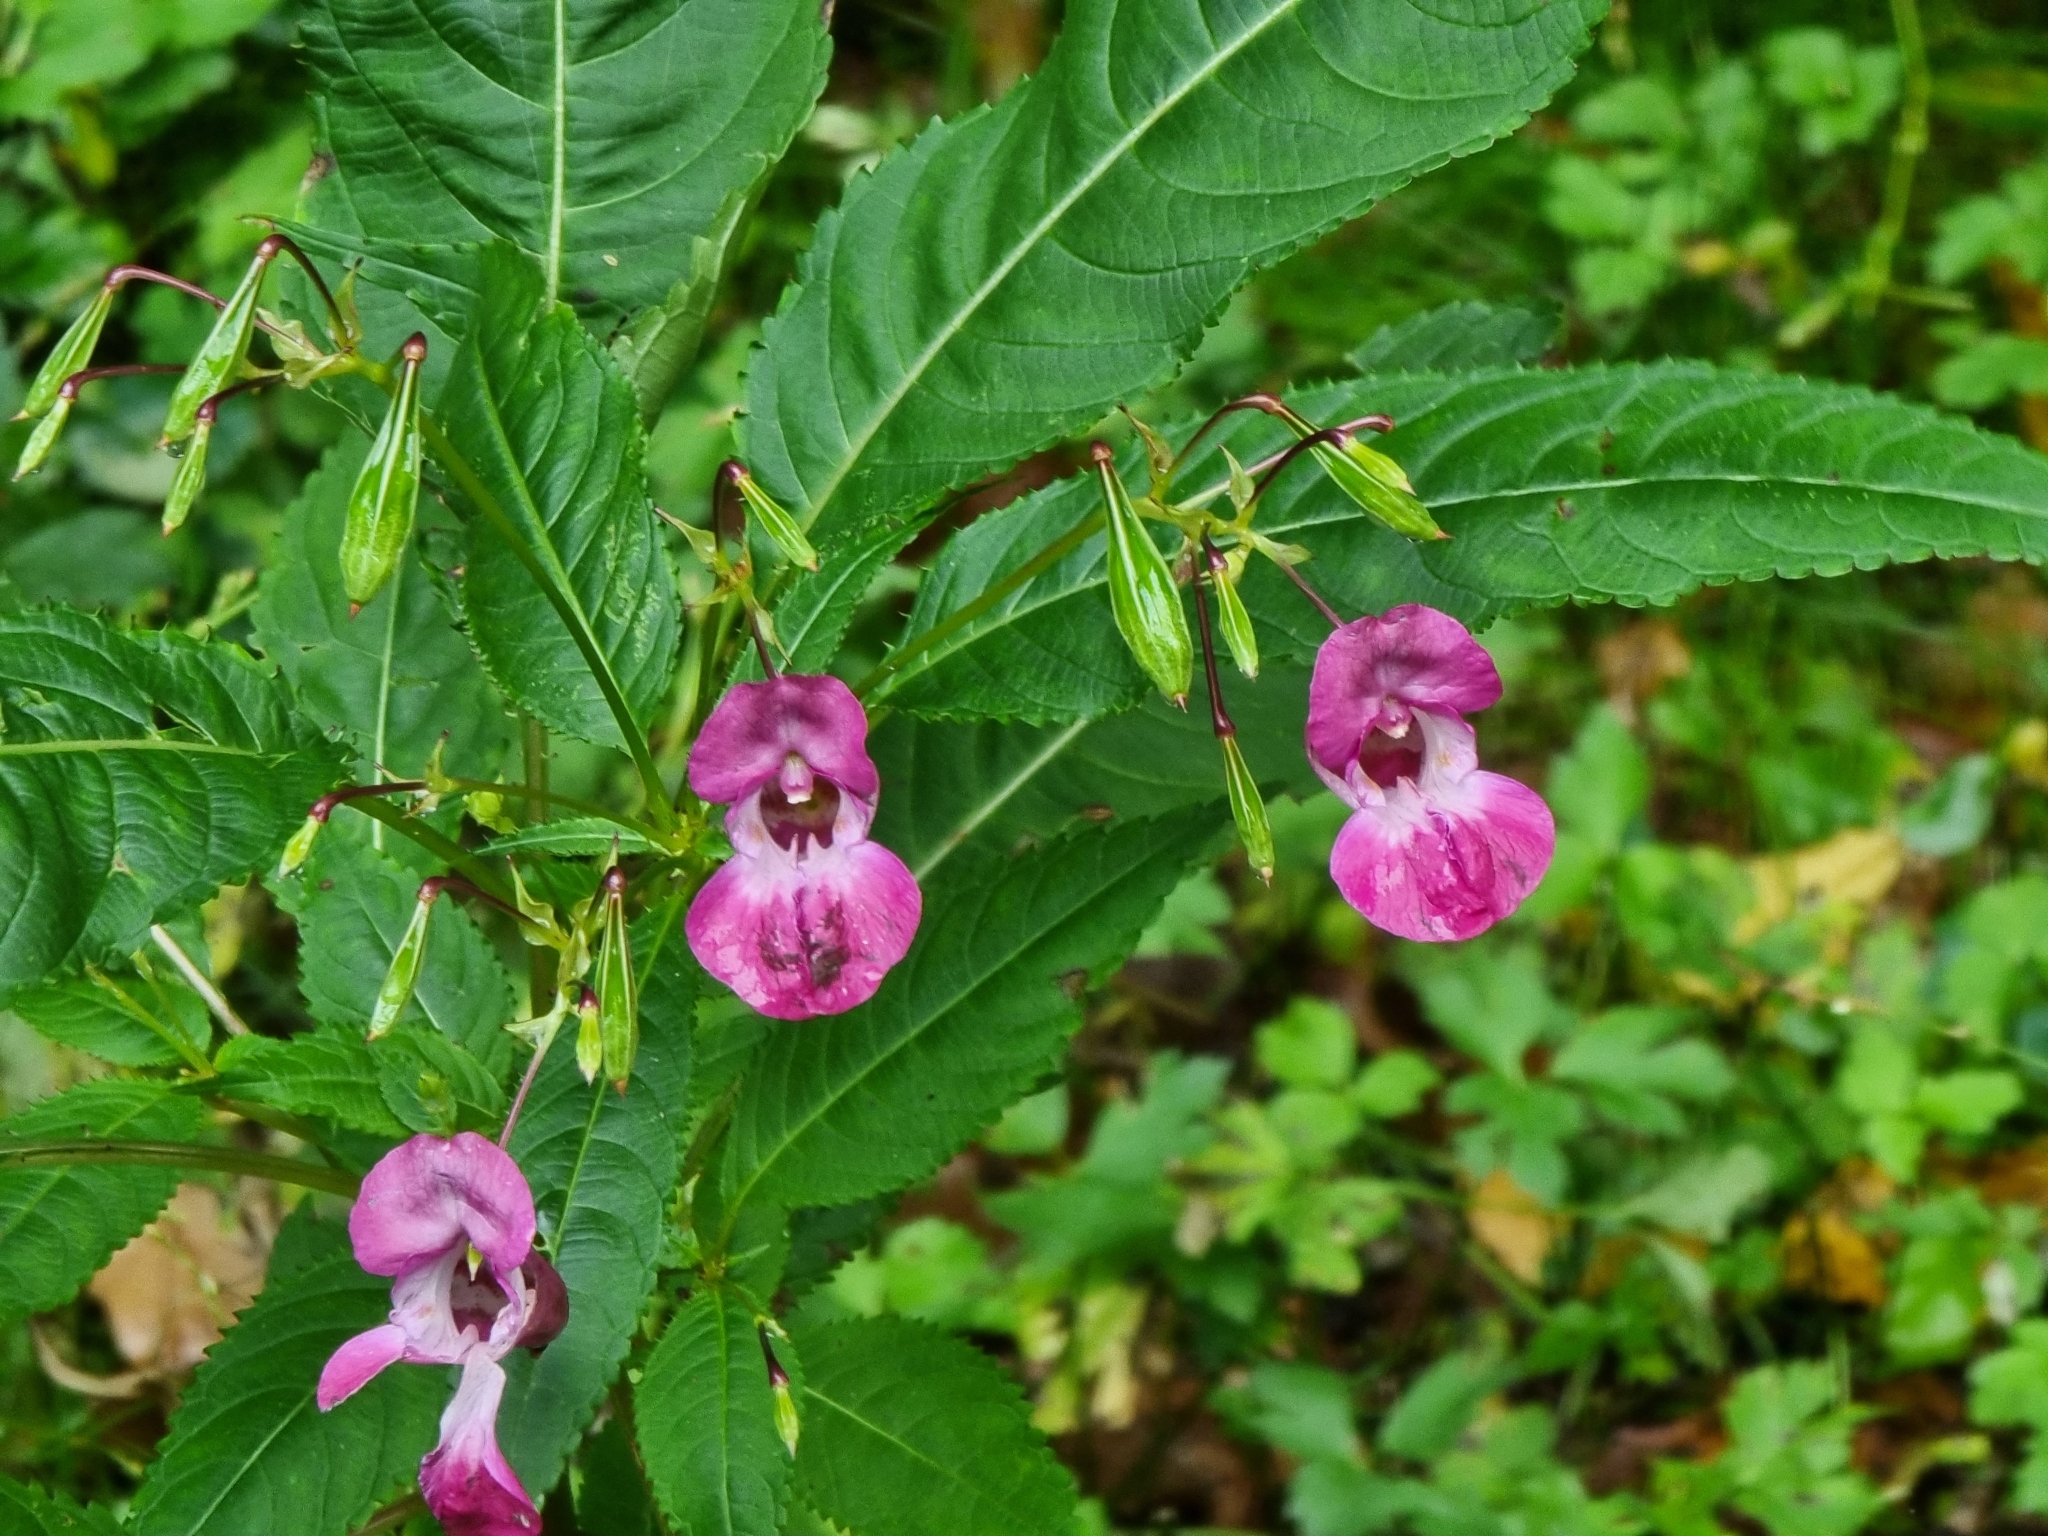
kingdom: Plantae
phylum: Tracheophyta
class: Magnoliopsida
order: Ericales
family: Balsaminaceae
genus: Impatiens
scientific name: Impatiens glandulifera
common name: Himalayan balsam
